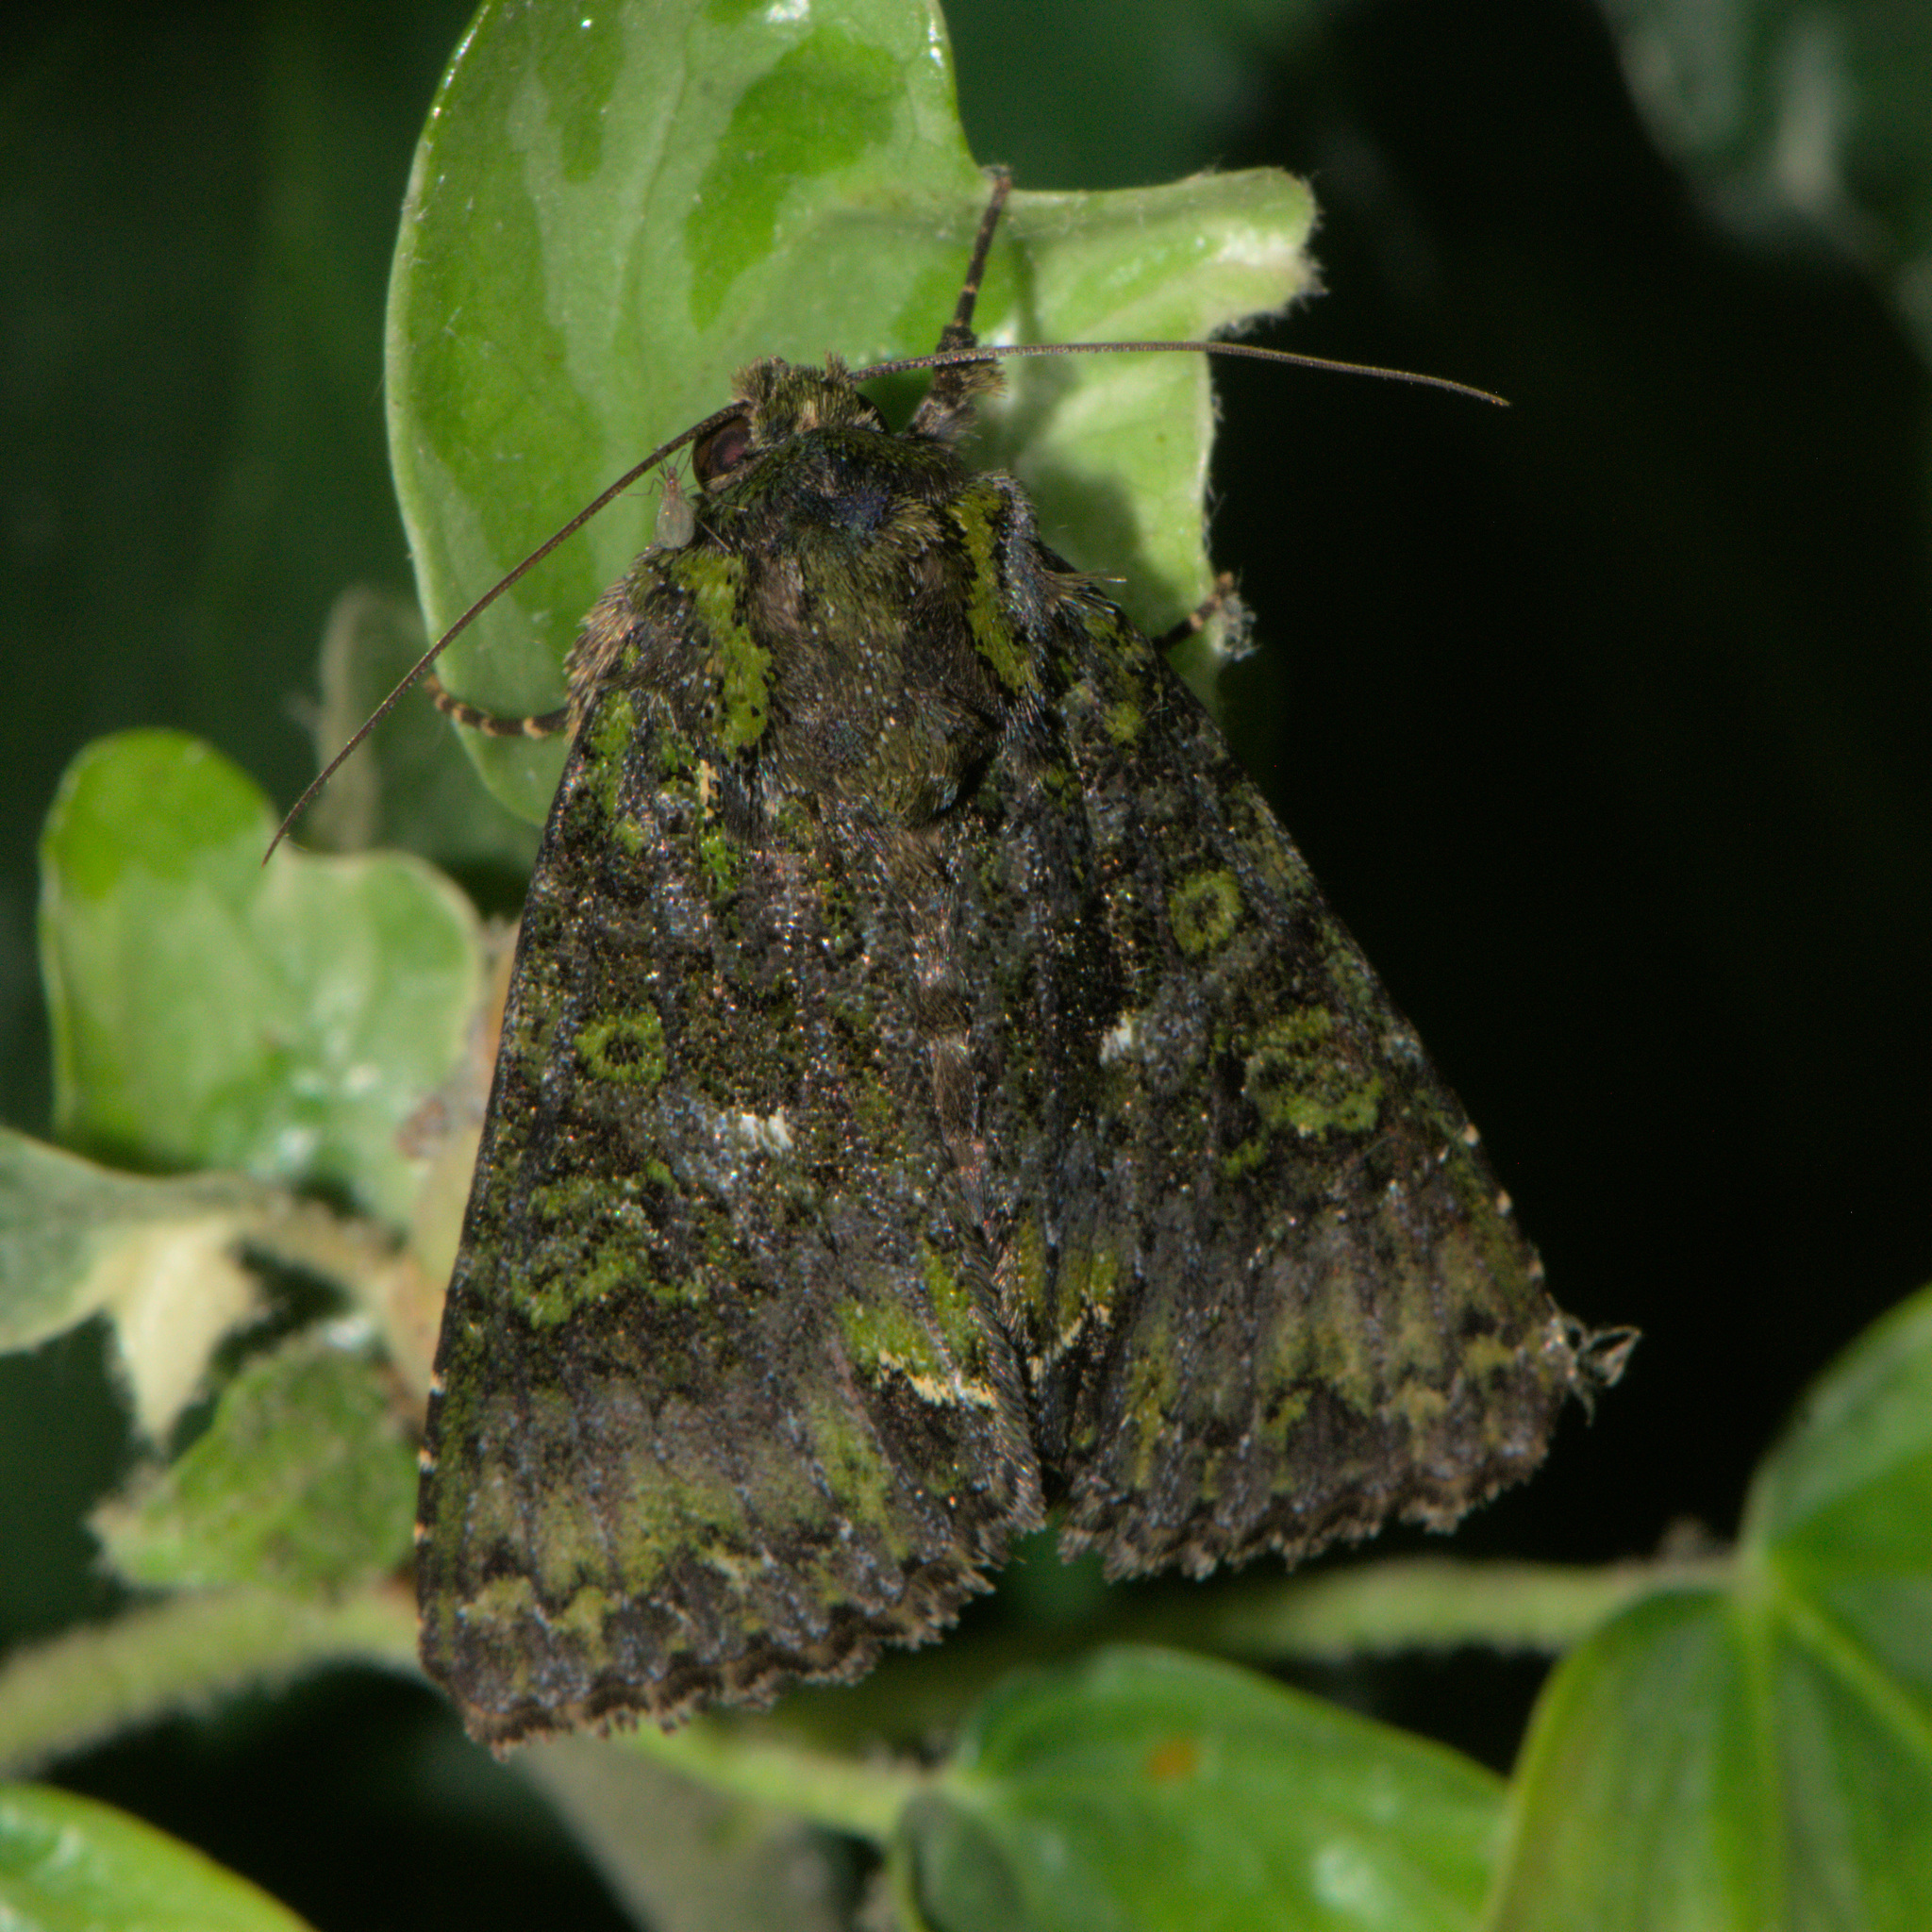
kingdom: Animalia
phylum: Arthropoda
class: Insecta
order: Lepidoptera
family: Noctuidae
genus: Trachea
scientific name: Trachea auriplena
